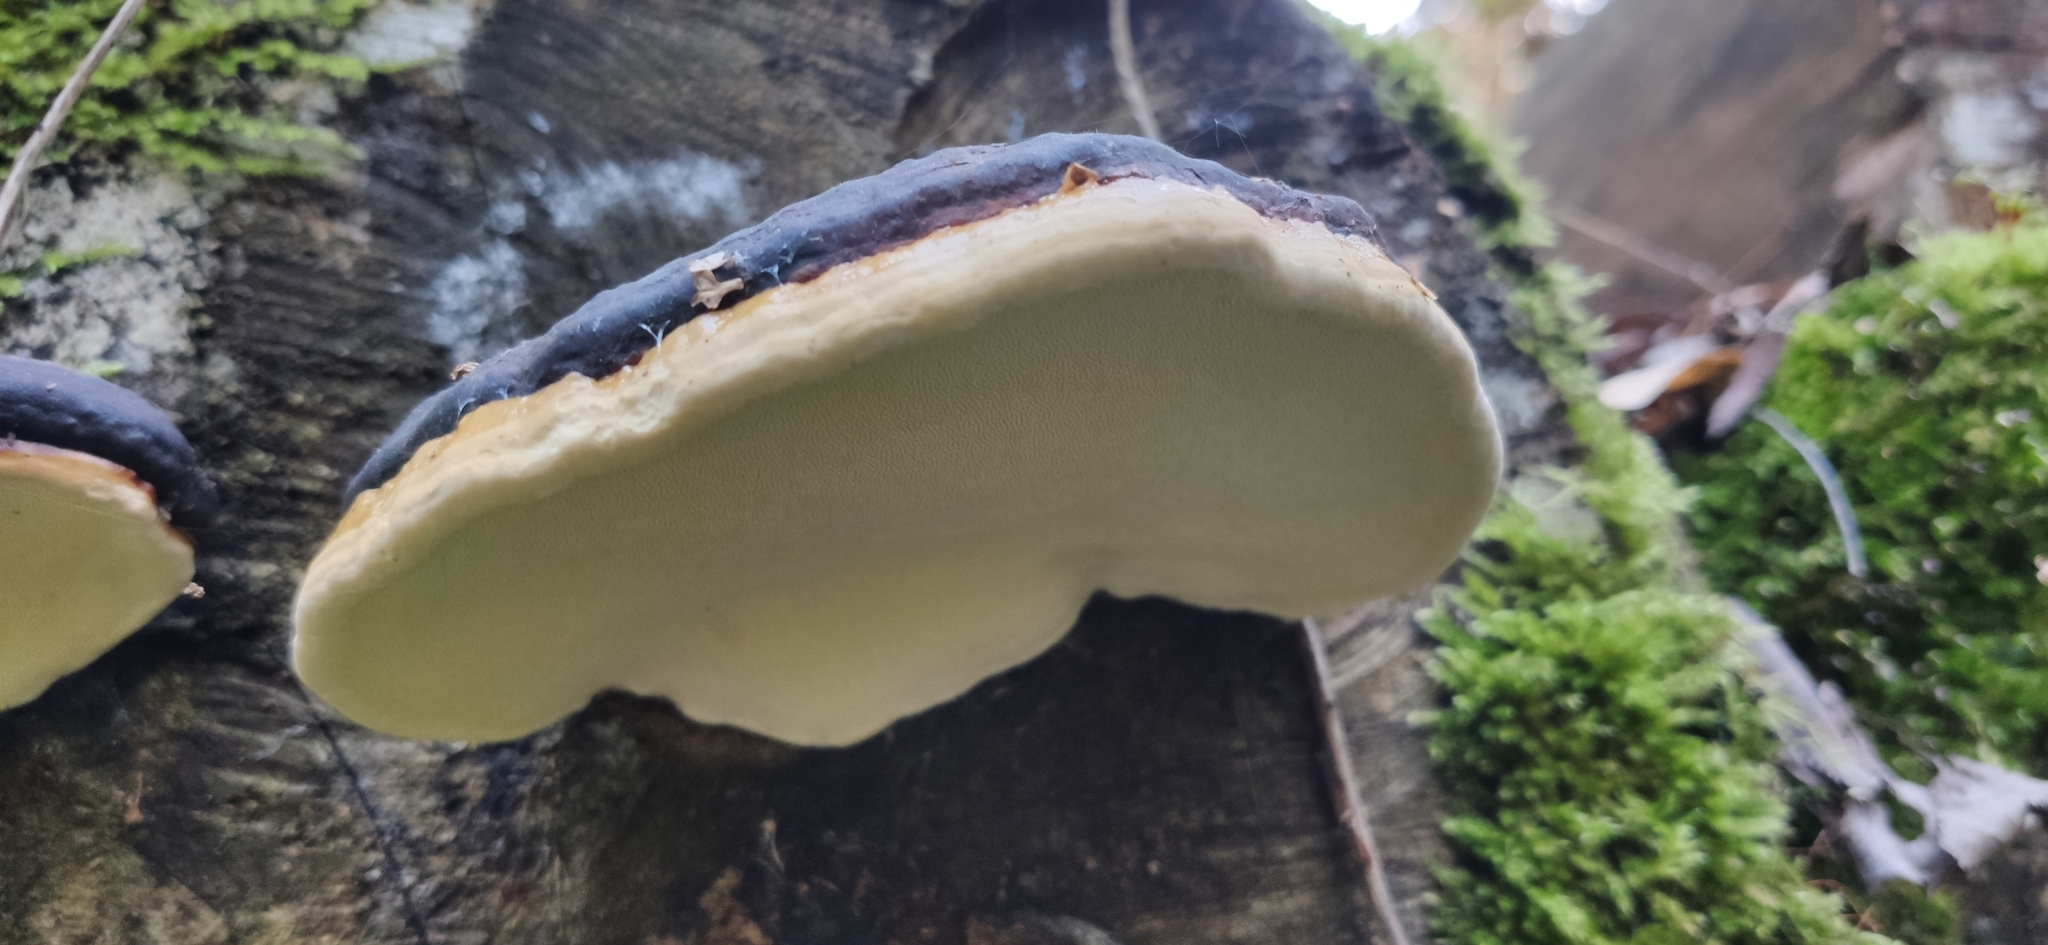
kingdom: Fungi
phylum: Basidiomycota
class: Agaricomycetes
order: Polyporales
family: Fomitopsidaceae
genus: Fomitopsis
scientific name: Fomitopsis pinicola
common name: Red-belted bracket
